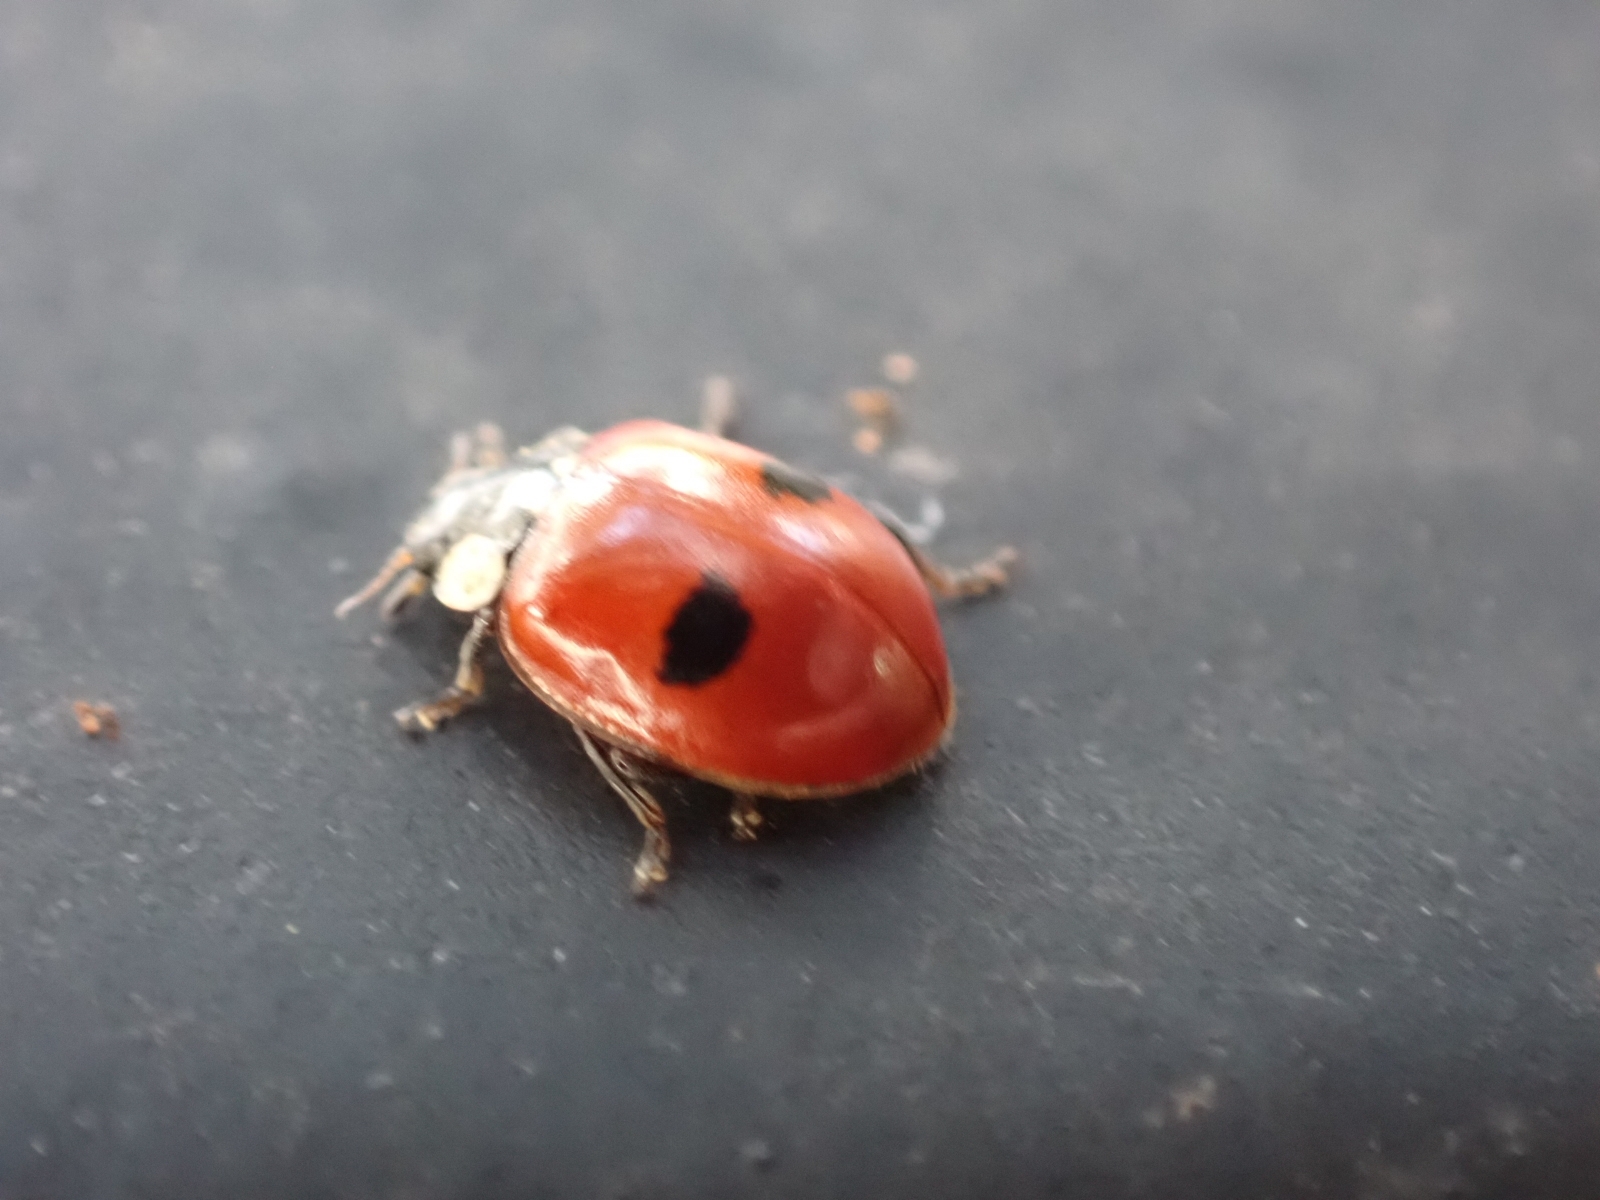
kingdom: Animalia
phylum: Arthropoda
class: Insecta
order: Coleoptera
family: Coccinellidae
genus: Adalia
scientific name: Adalia bipunctata
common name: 2-spot ladybird
